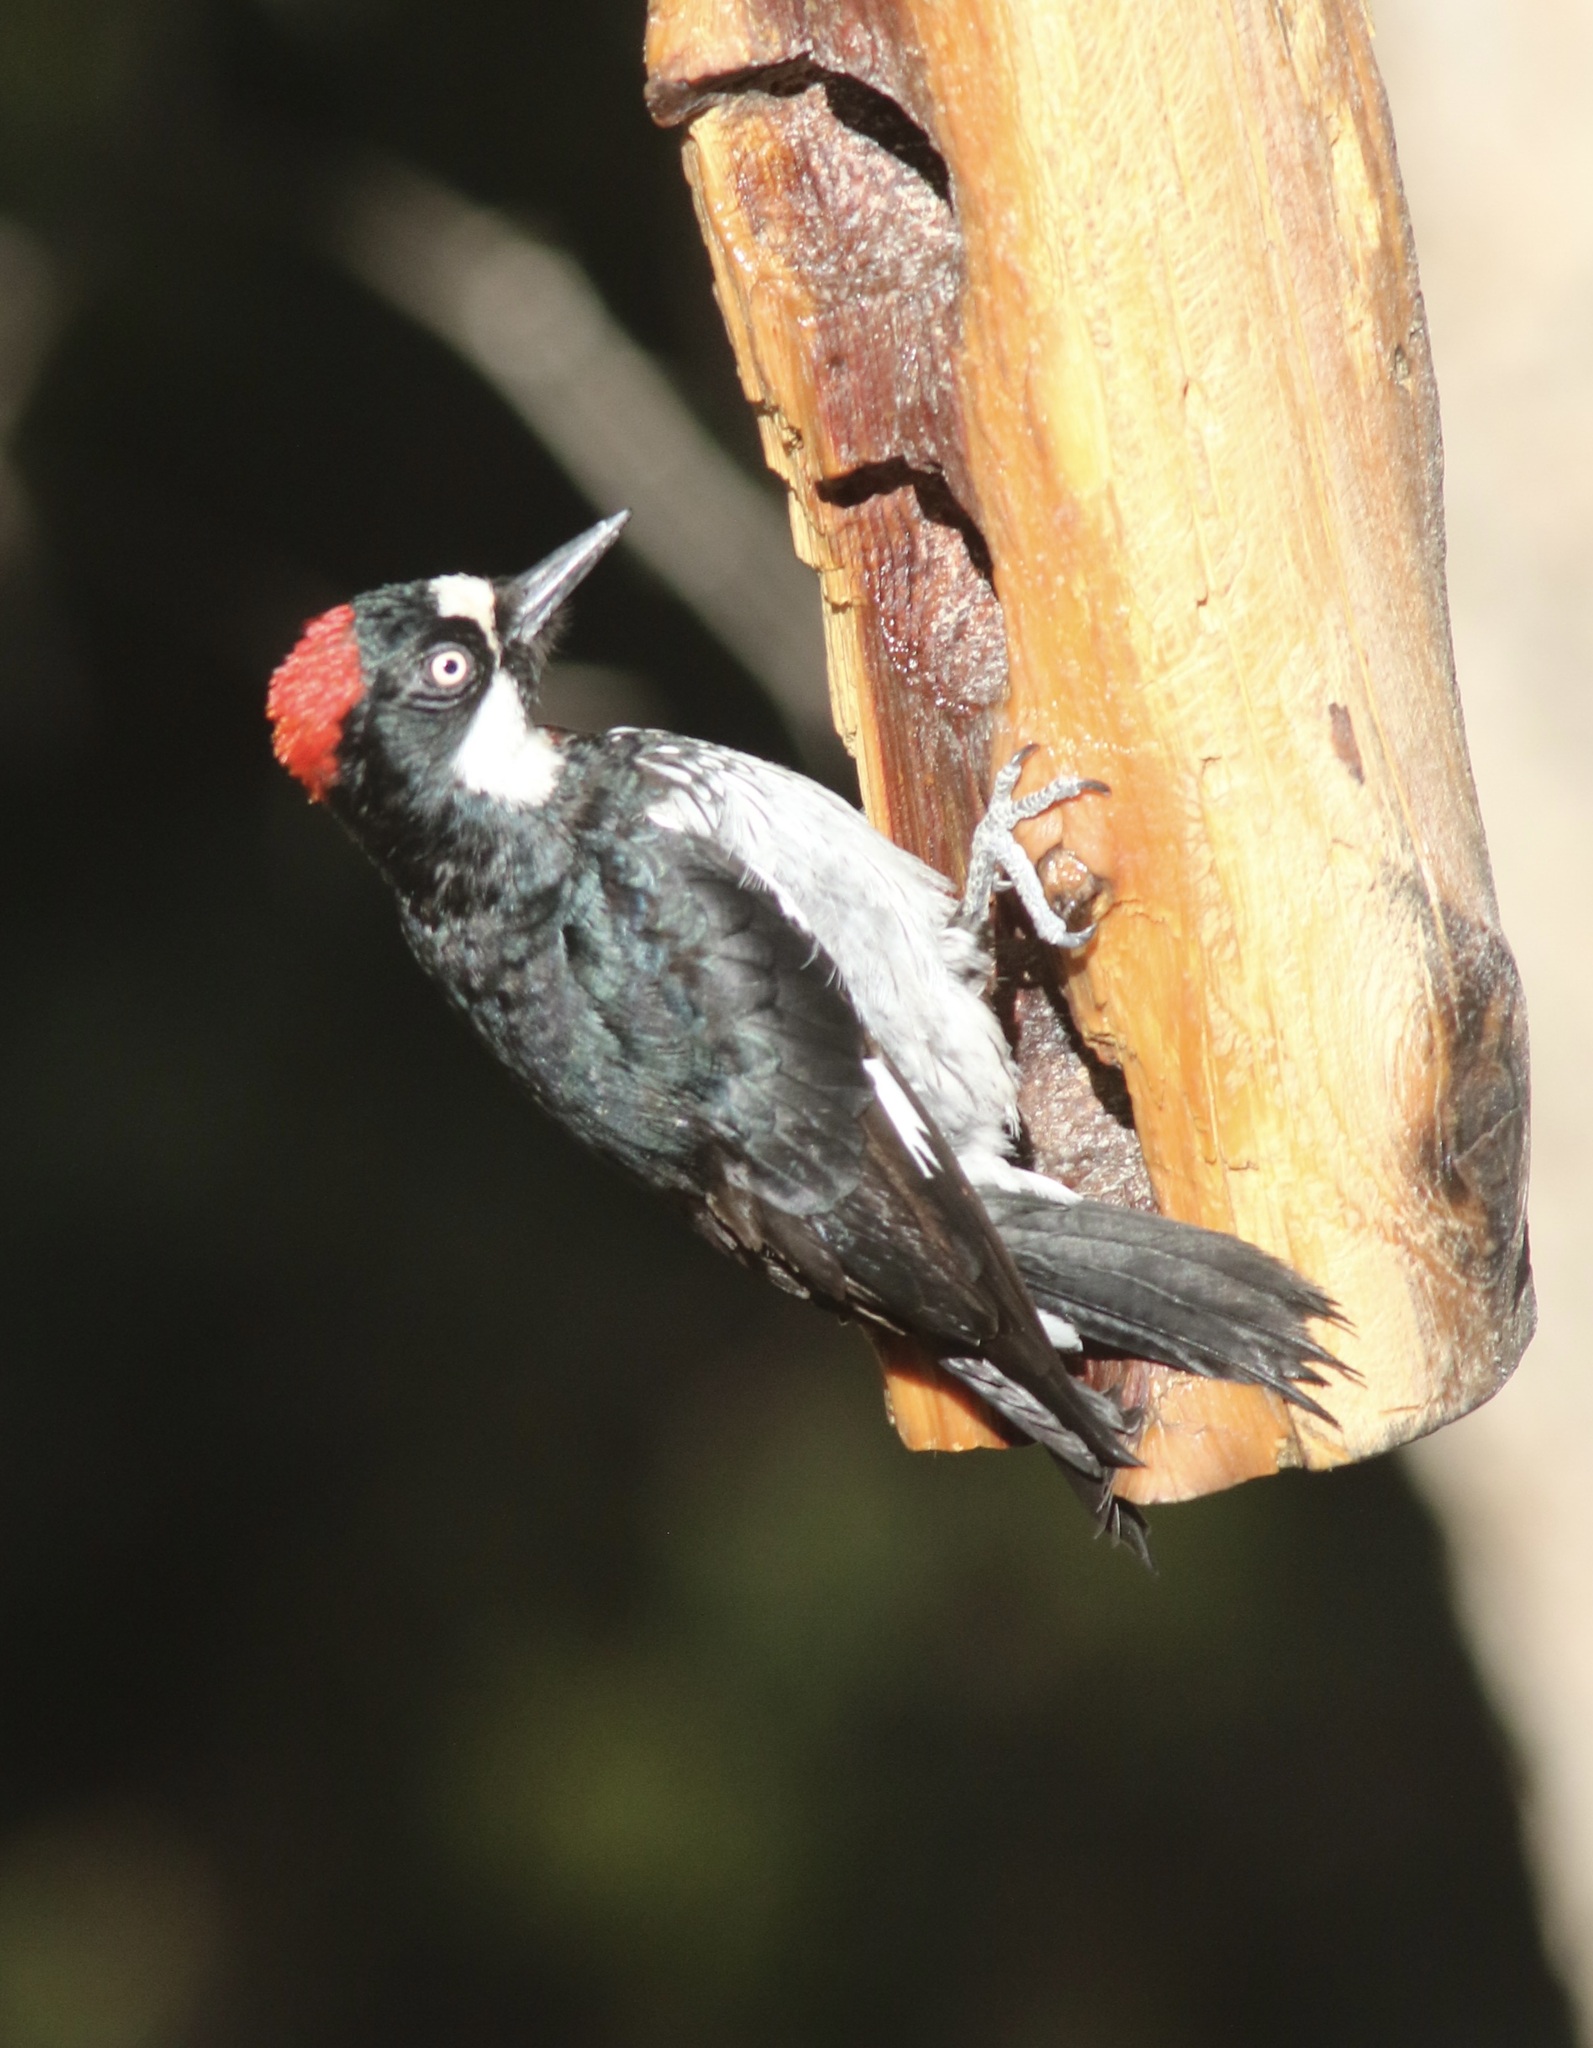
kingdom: Animalia
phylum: Chordata
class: Aves
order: Piciformes
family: Picidae
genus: Melanerpes
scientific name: Melanerpes formicivorus
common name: Acorn woodpecker
